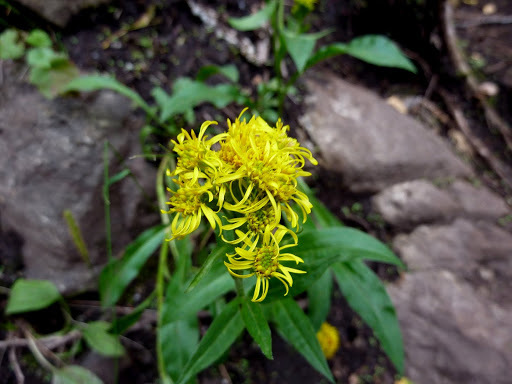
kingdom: Plantae
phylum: Tracheophyta
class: Magnoliopsida
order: Asterales
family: Asteraceae
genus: Solidago
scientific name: Solidago multiradiata
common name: Northern goldenrod
